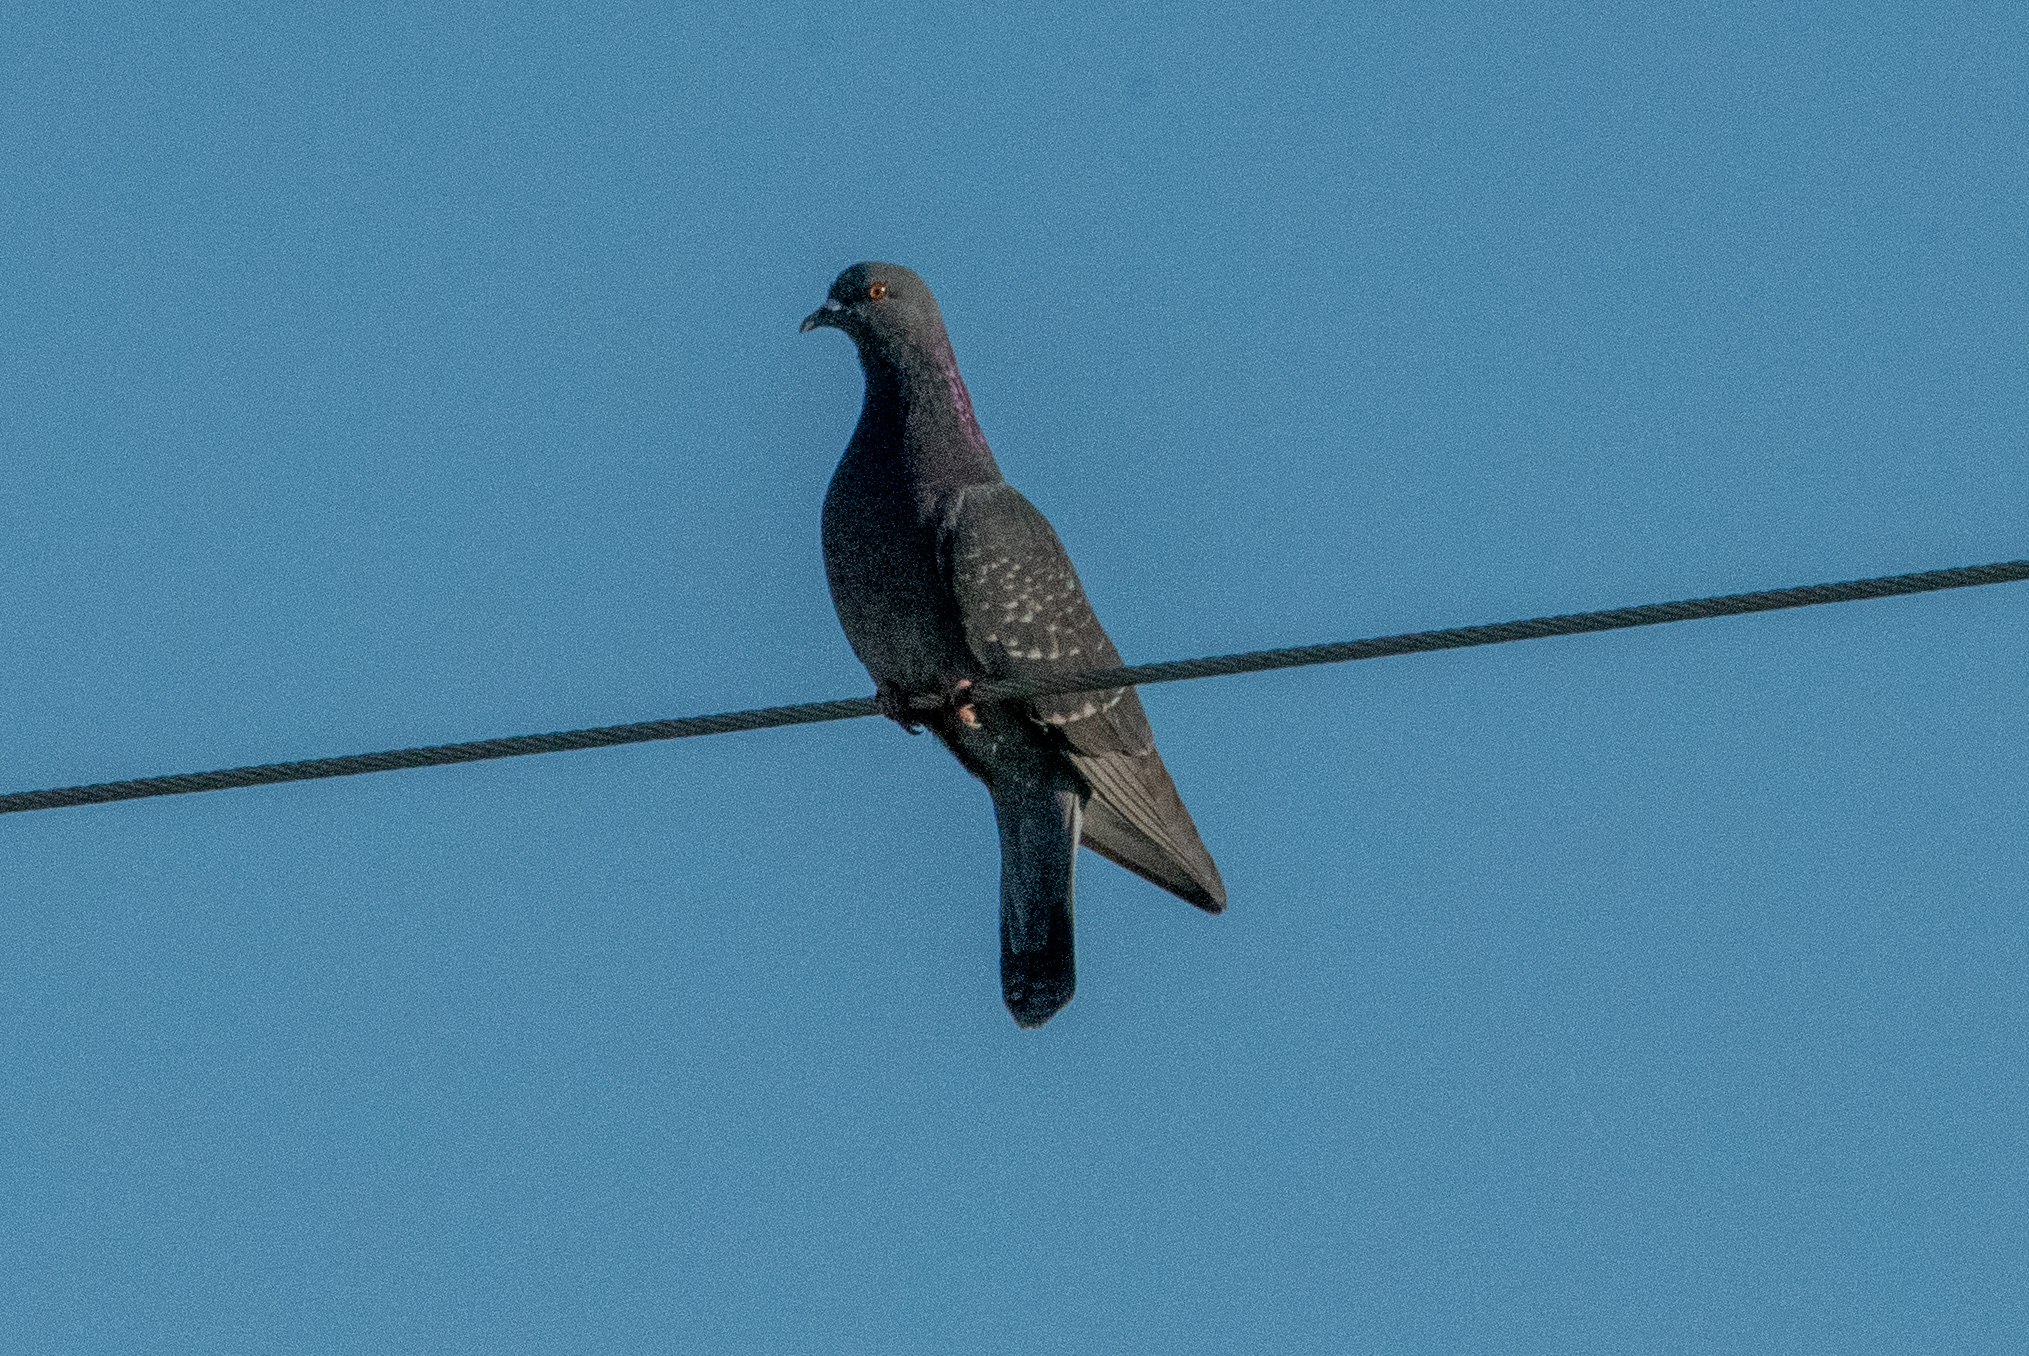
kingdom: Animalia
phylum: Chordata
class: Aves
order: Columbiformes
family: Columbidae
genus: Columba
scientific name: Columba livia
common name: Rock pigeon
